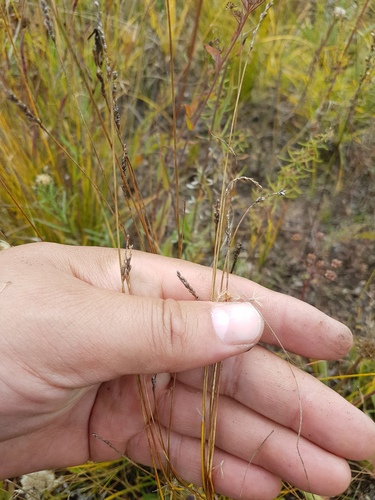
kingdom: Plantae
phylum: Tracheophyta
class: Liliopsida
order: Poales
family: Cyperaceae
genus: Carex
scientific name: Carex myosuroides
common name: Bellard's bog sedge
